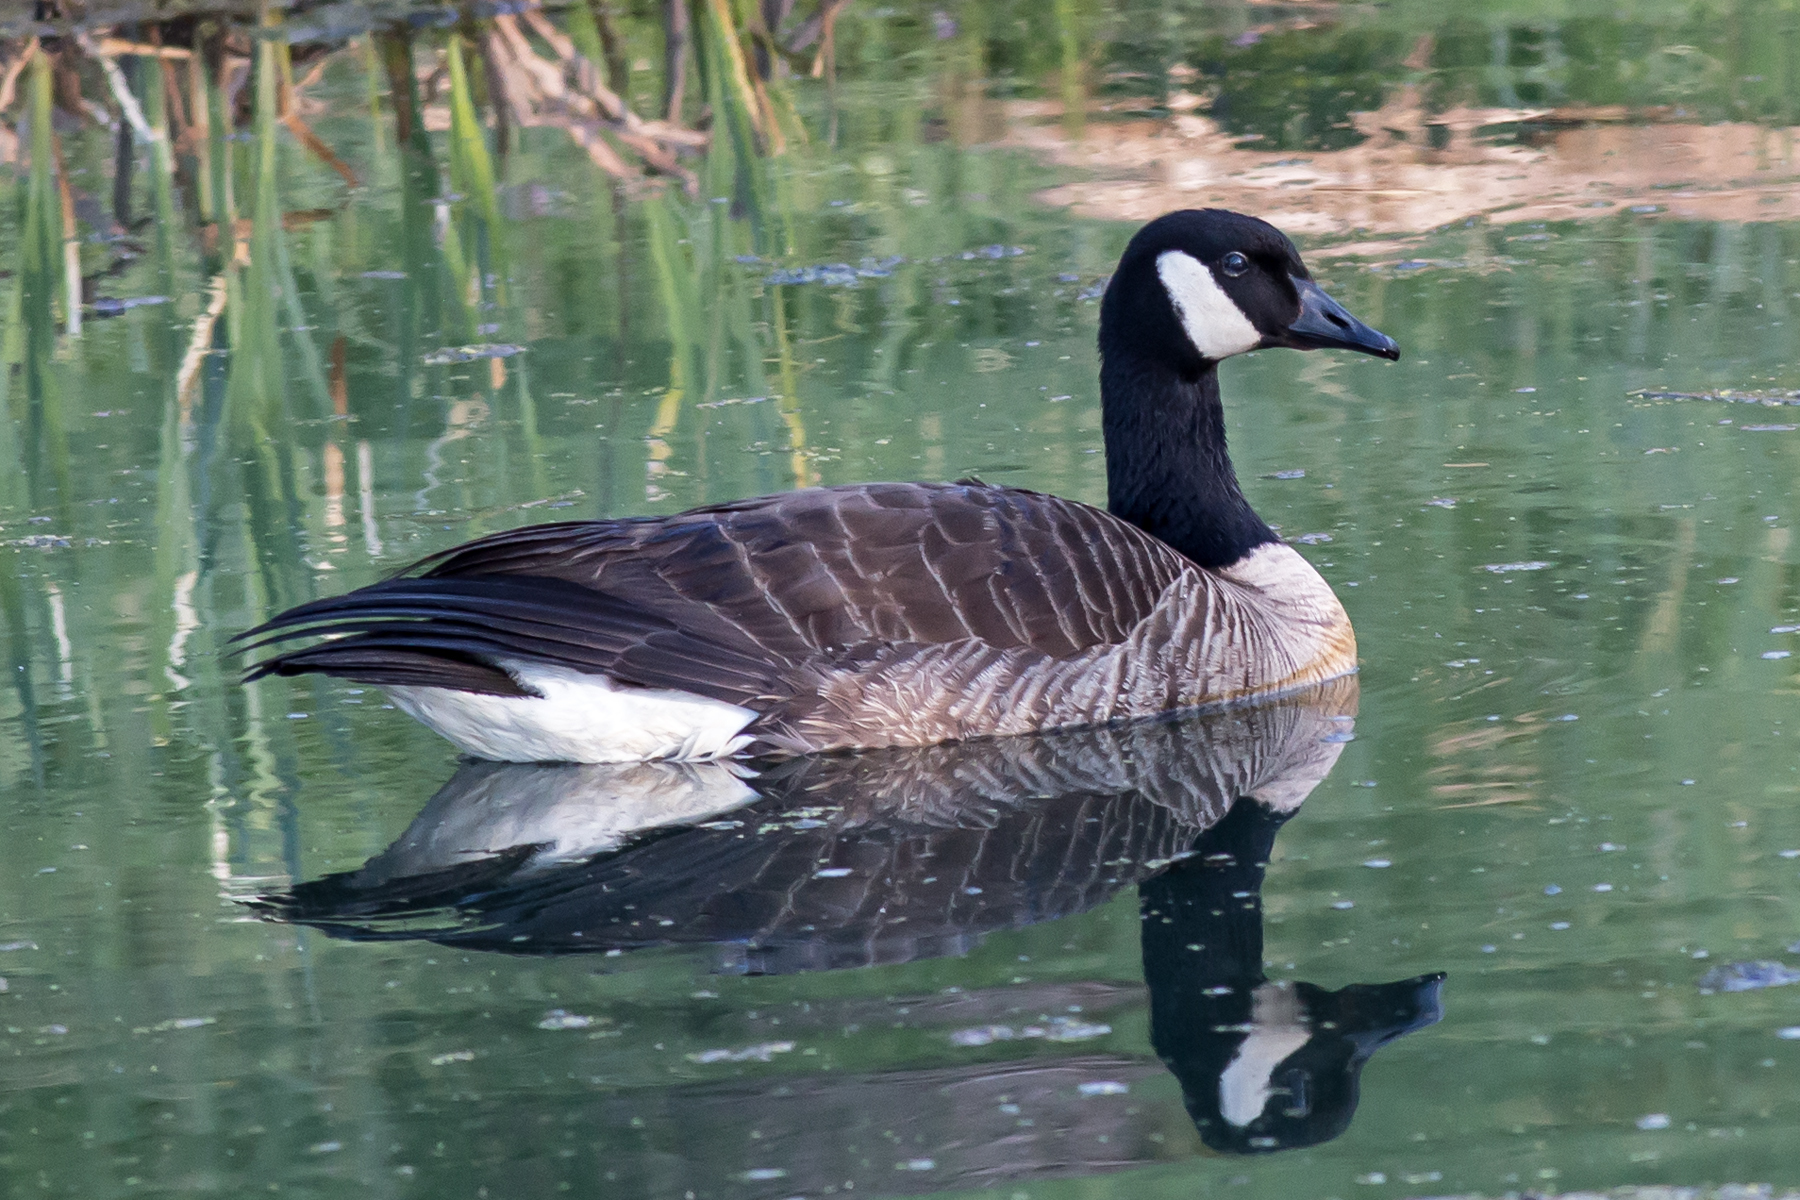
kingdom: Animalia
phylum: Chordata
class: Aves
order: Anseriformes
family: Anatidae
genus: Branta
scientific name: Branta canadensis
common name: Canada goose
